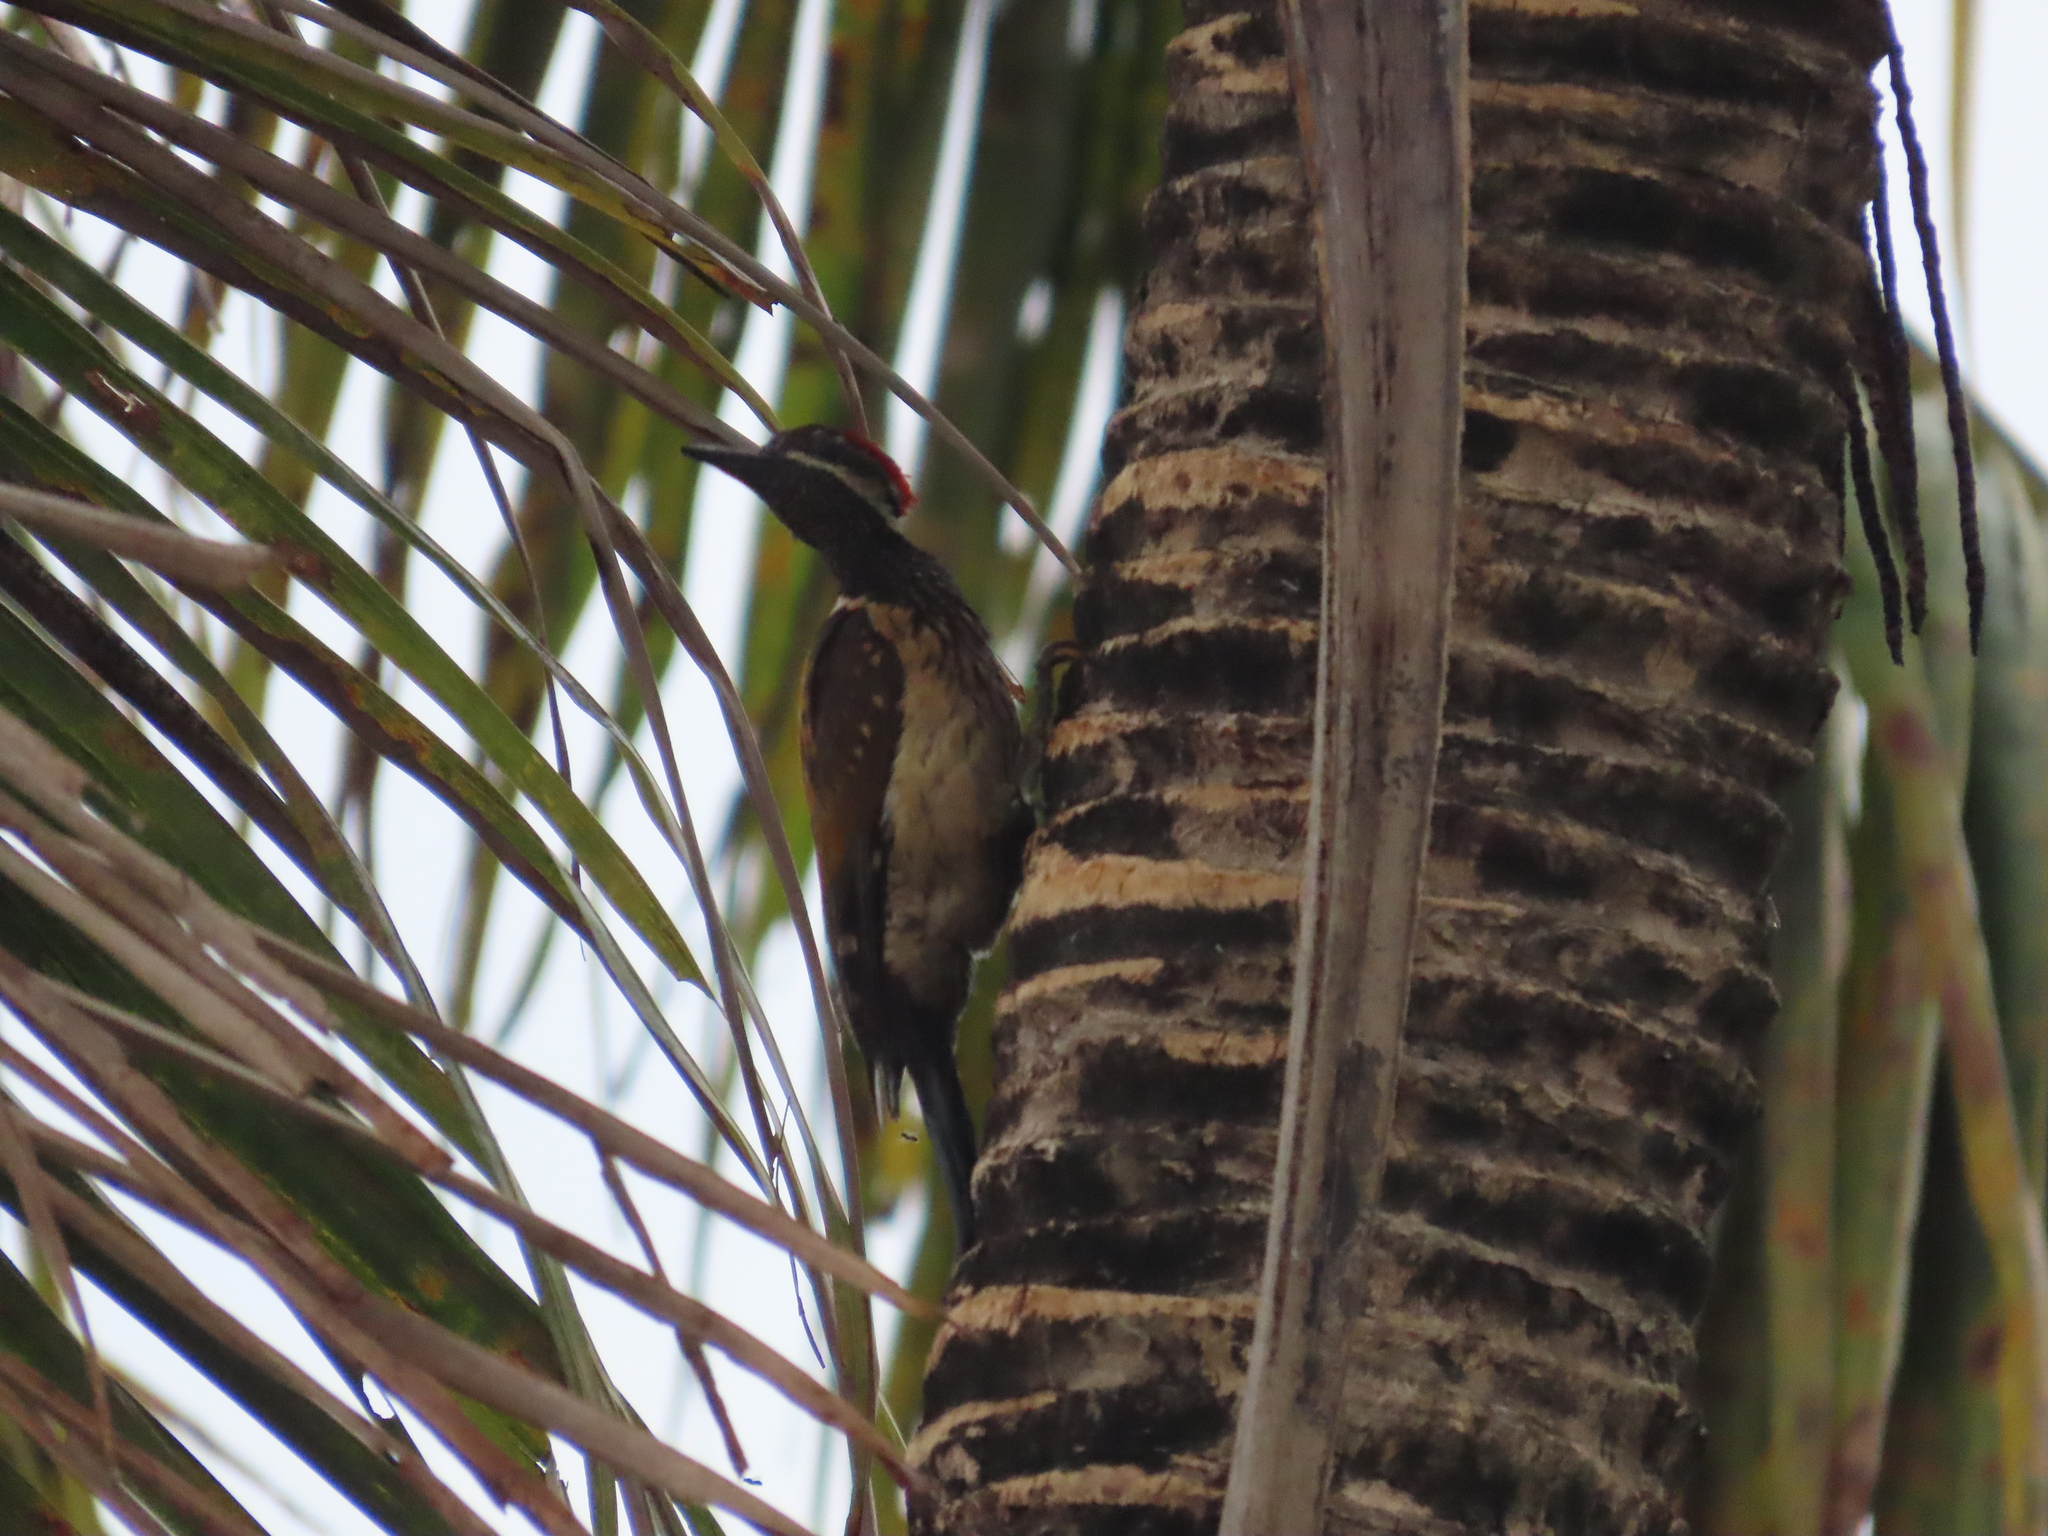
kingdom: Animalia
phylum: Chordata
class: Aves
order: Piciformes
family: Picidae
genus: Dinopium
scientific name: Dinopium benghalense
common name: Black-rumped flameback
